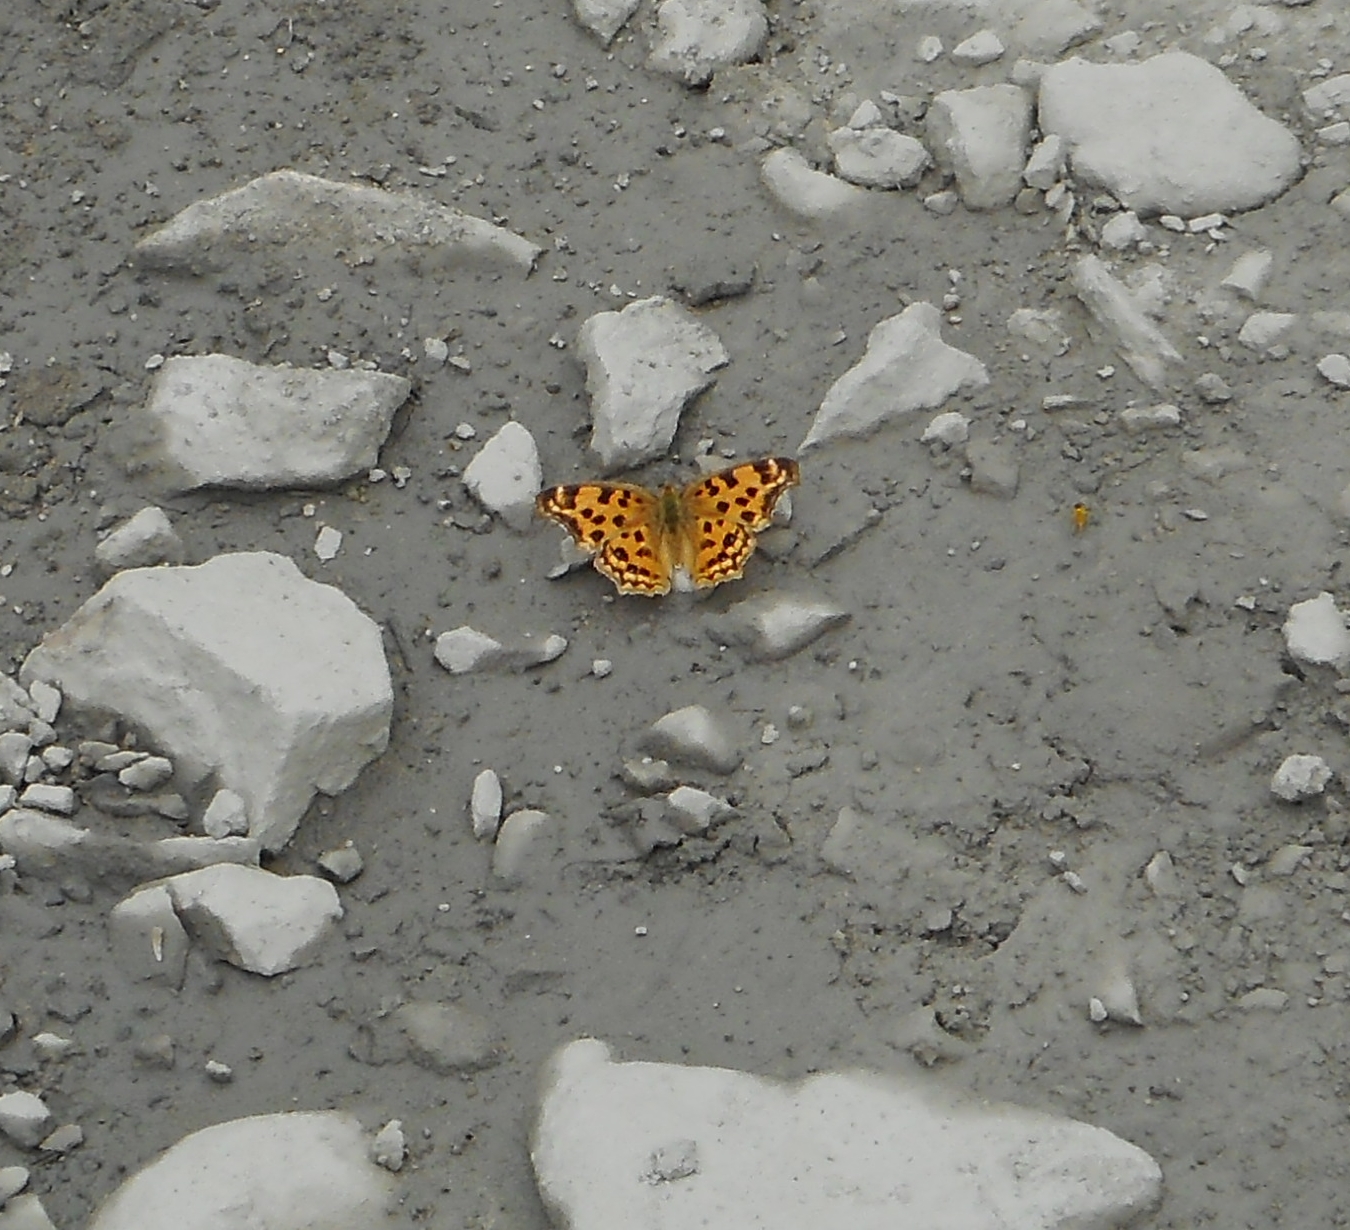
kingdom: Animalia
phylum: Arthropoda
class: Insecta
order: Lepidoptera
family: Nymphalidae
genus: Polygonia
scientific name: Polygonia c-aureum
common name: Asian comma
